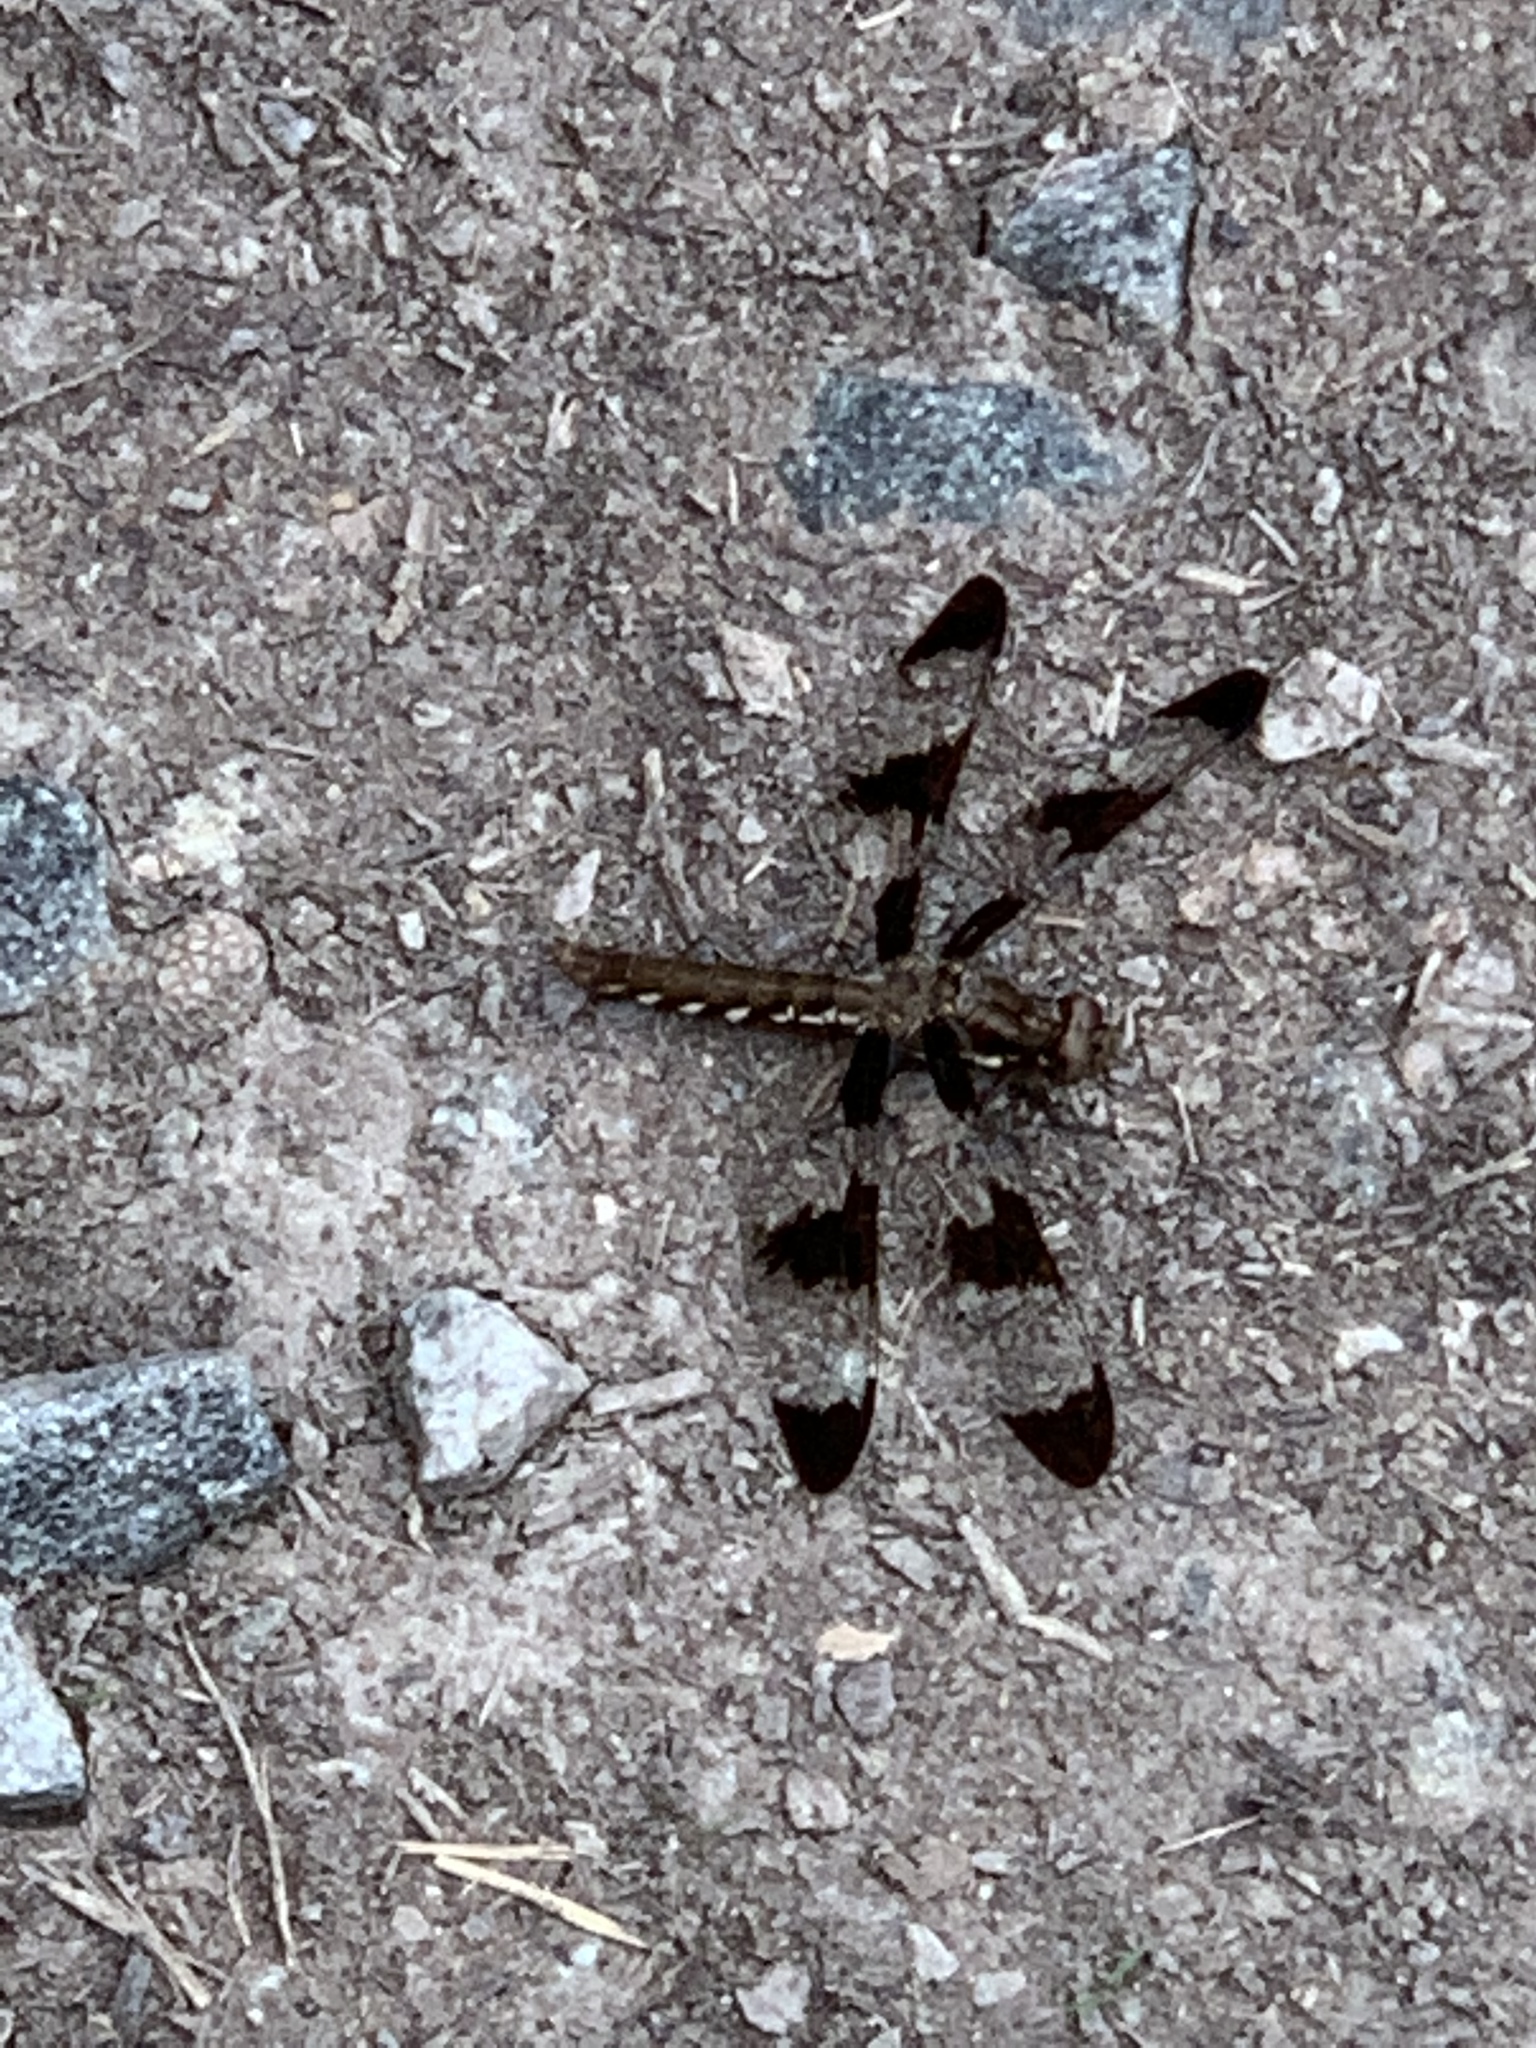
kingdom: Animalia
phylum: Arthropoda
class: Insecta
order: Odonata
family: Libellulidae
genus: Plathemis
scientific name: Plathemis lydia
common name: Common whitetail
